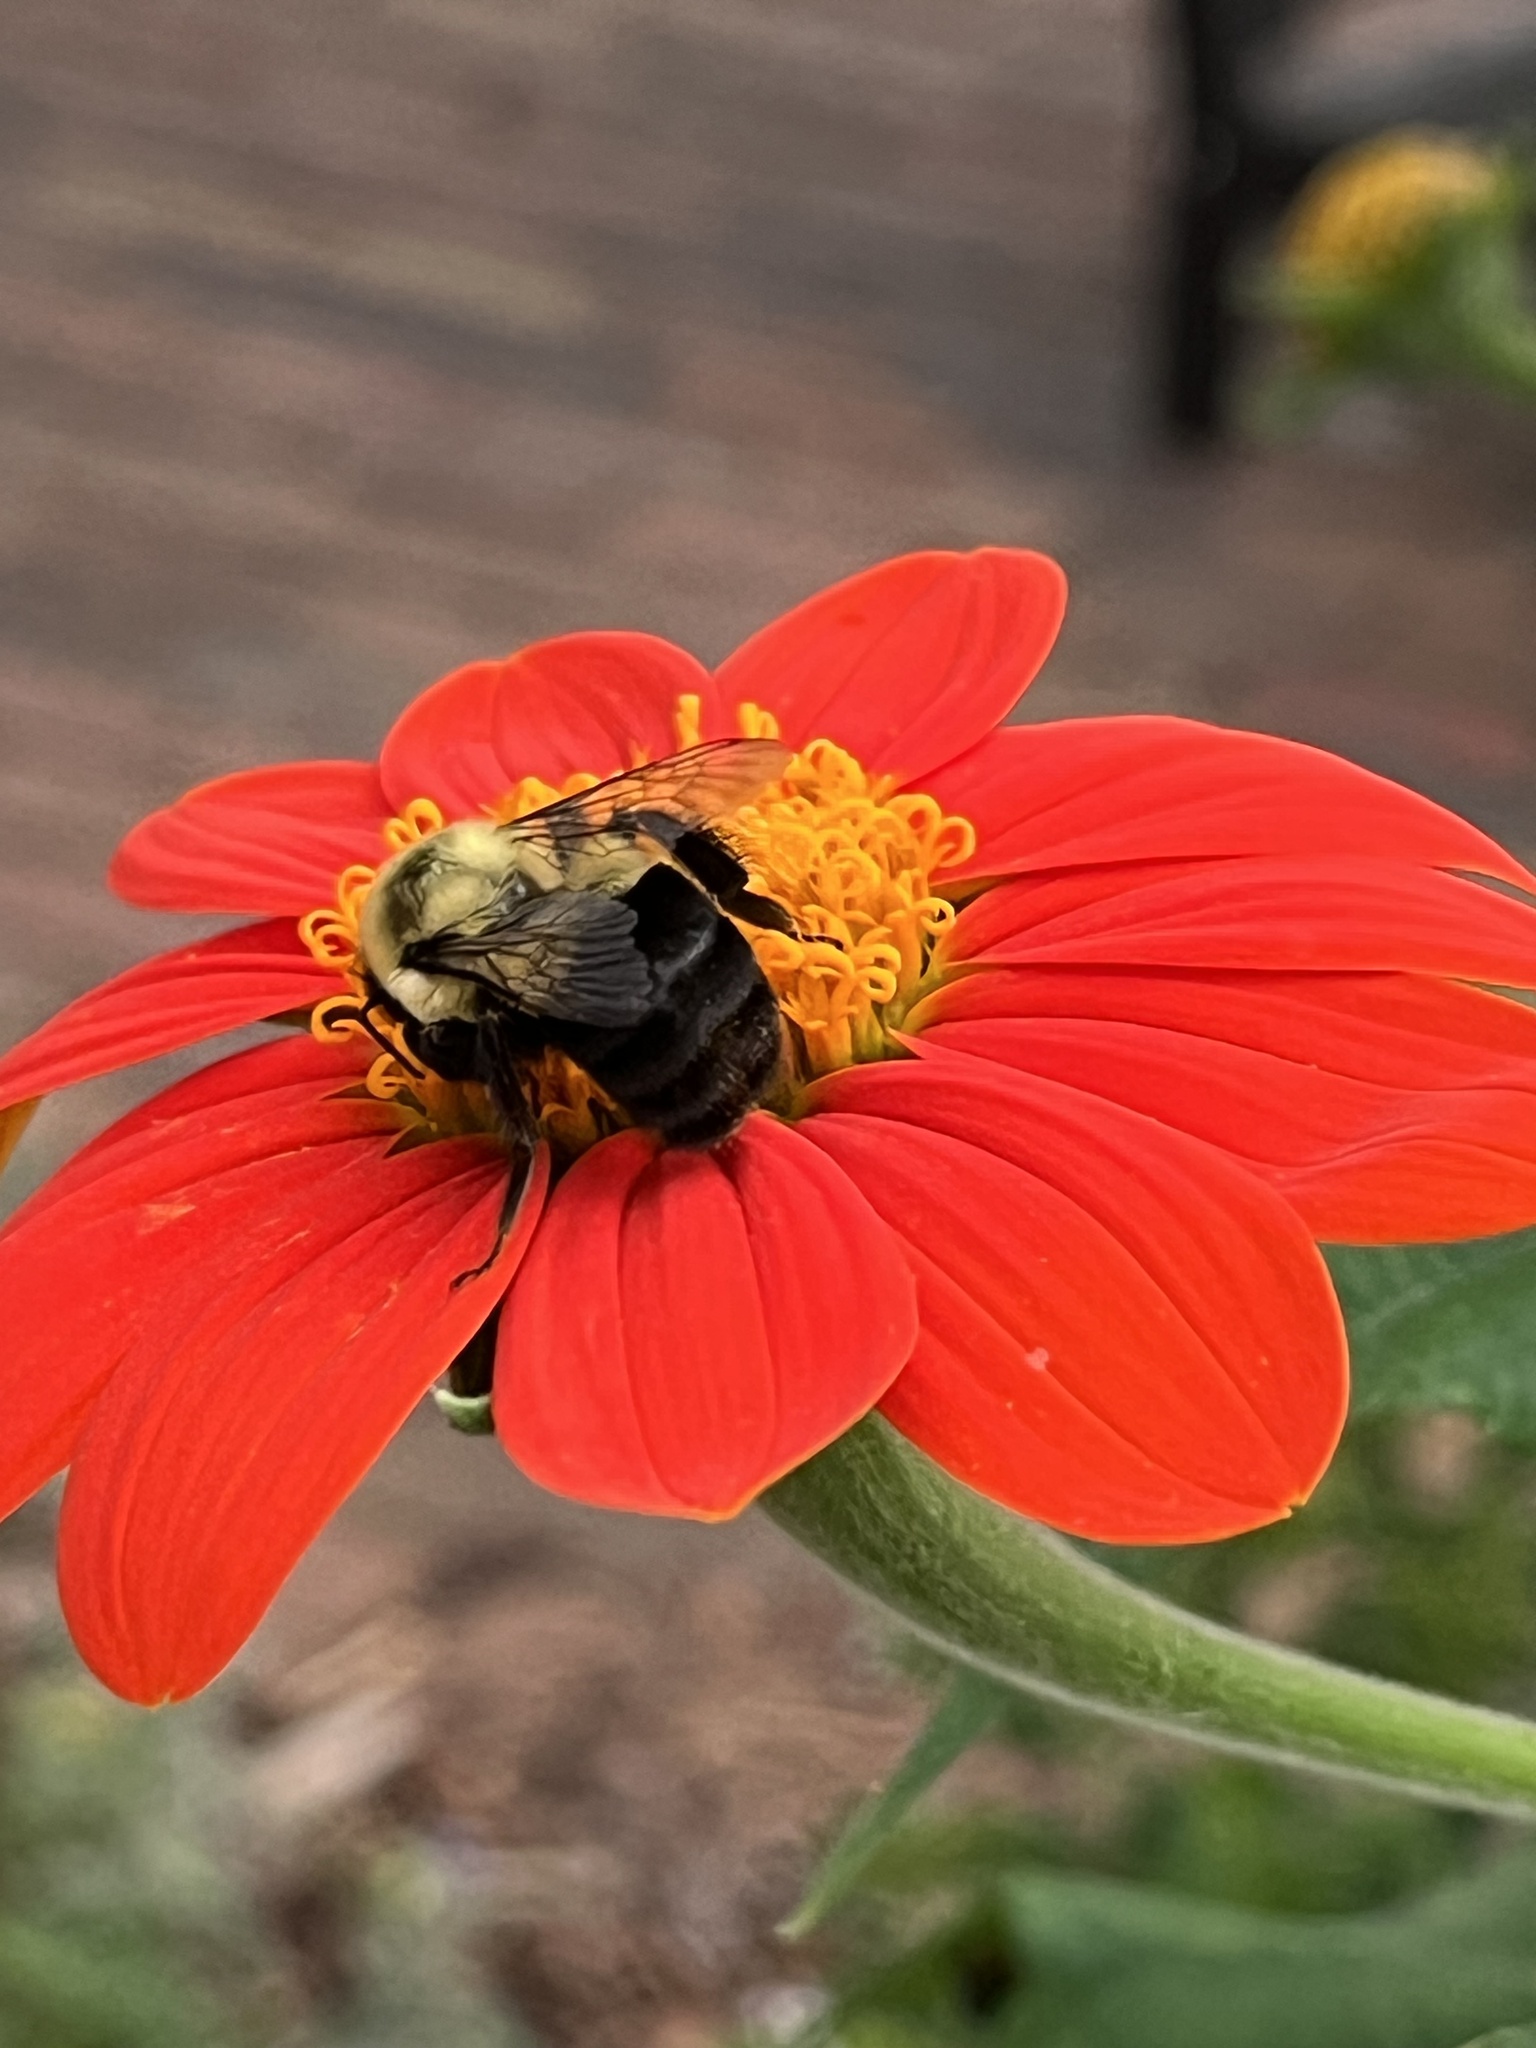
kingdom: Animalia
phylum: Arthropoda
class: Insecta
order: Hymenoptera
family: Apidae
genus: Bombus
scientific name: Bombus impatiens
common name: Common eastern bumble bee
